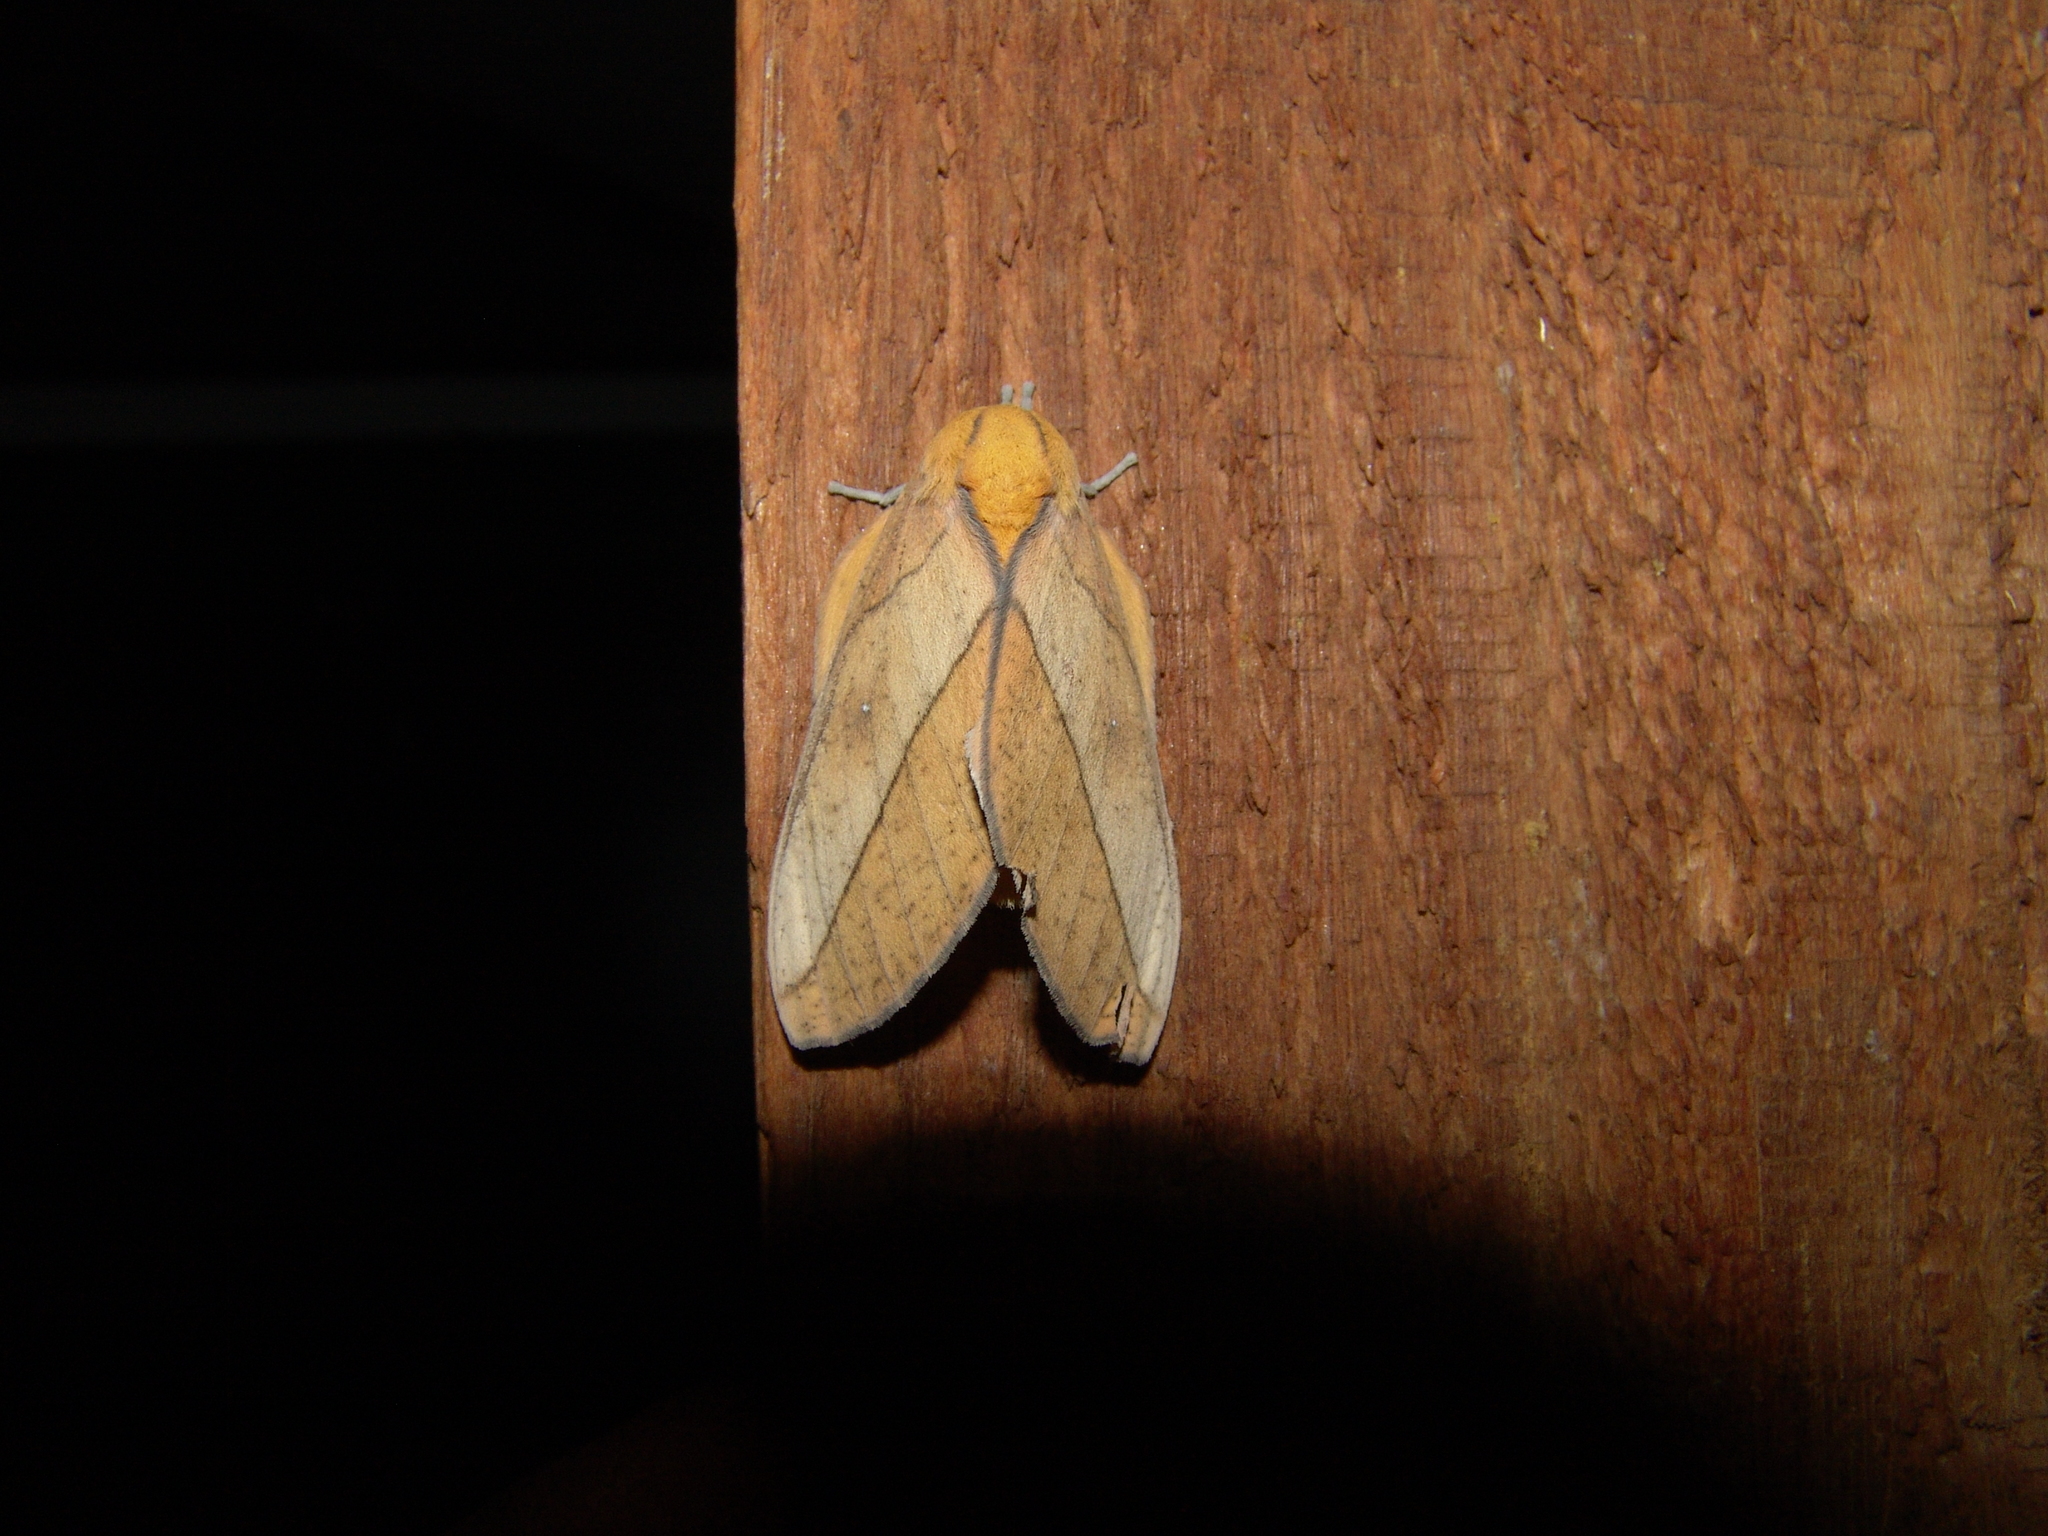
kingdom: Animalia
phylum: Arthropoda
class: Insecta
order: Lepidoptera
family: Saturniidae
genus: Syssphinx
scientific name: Syssphinx montana
